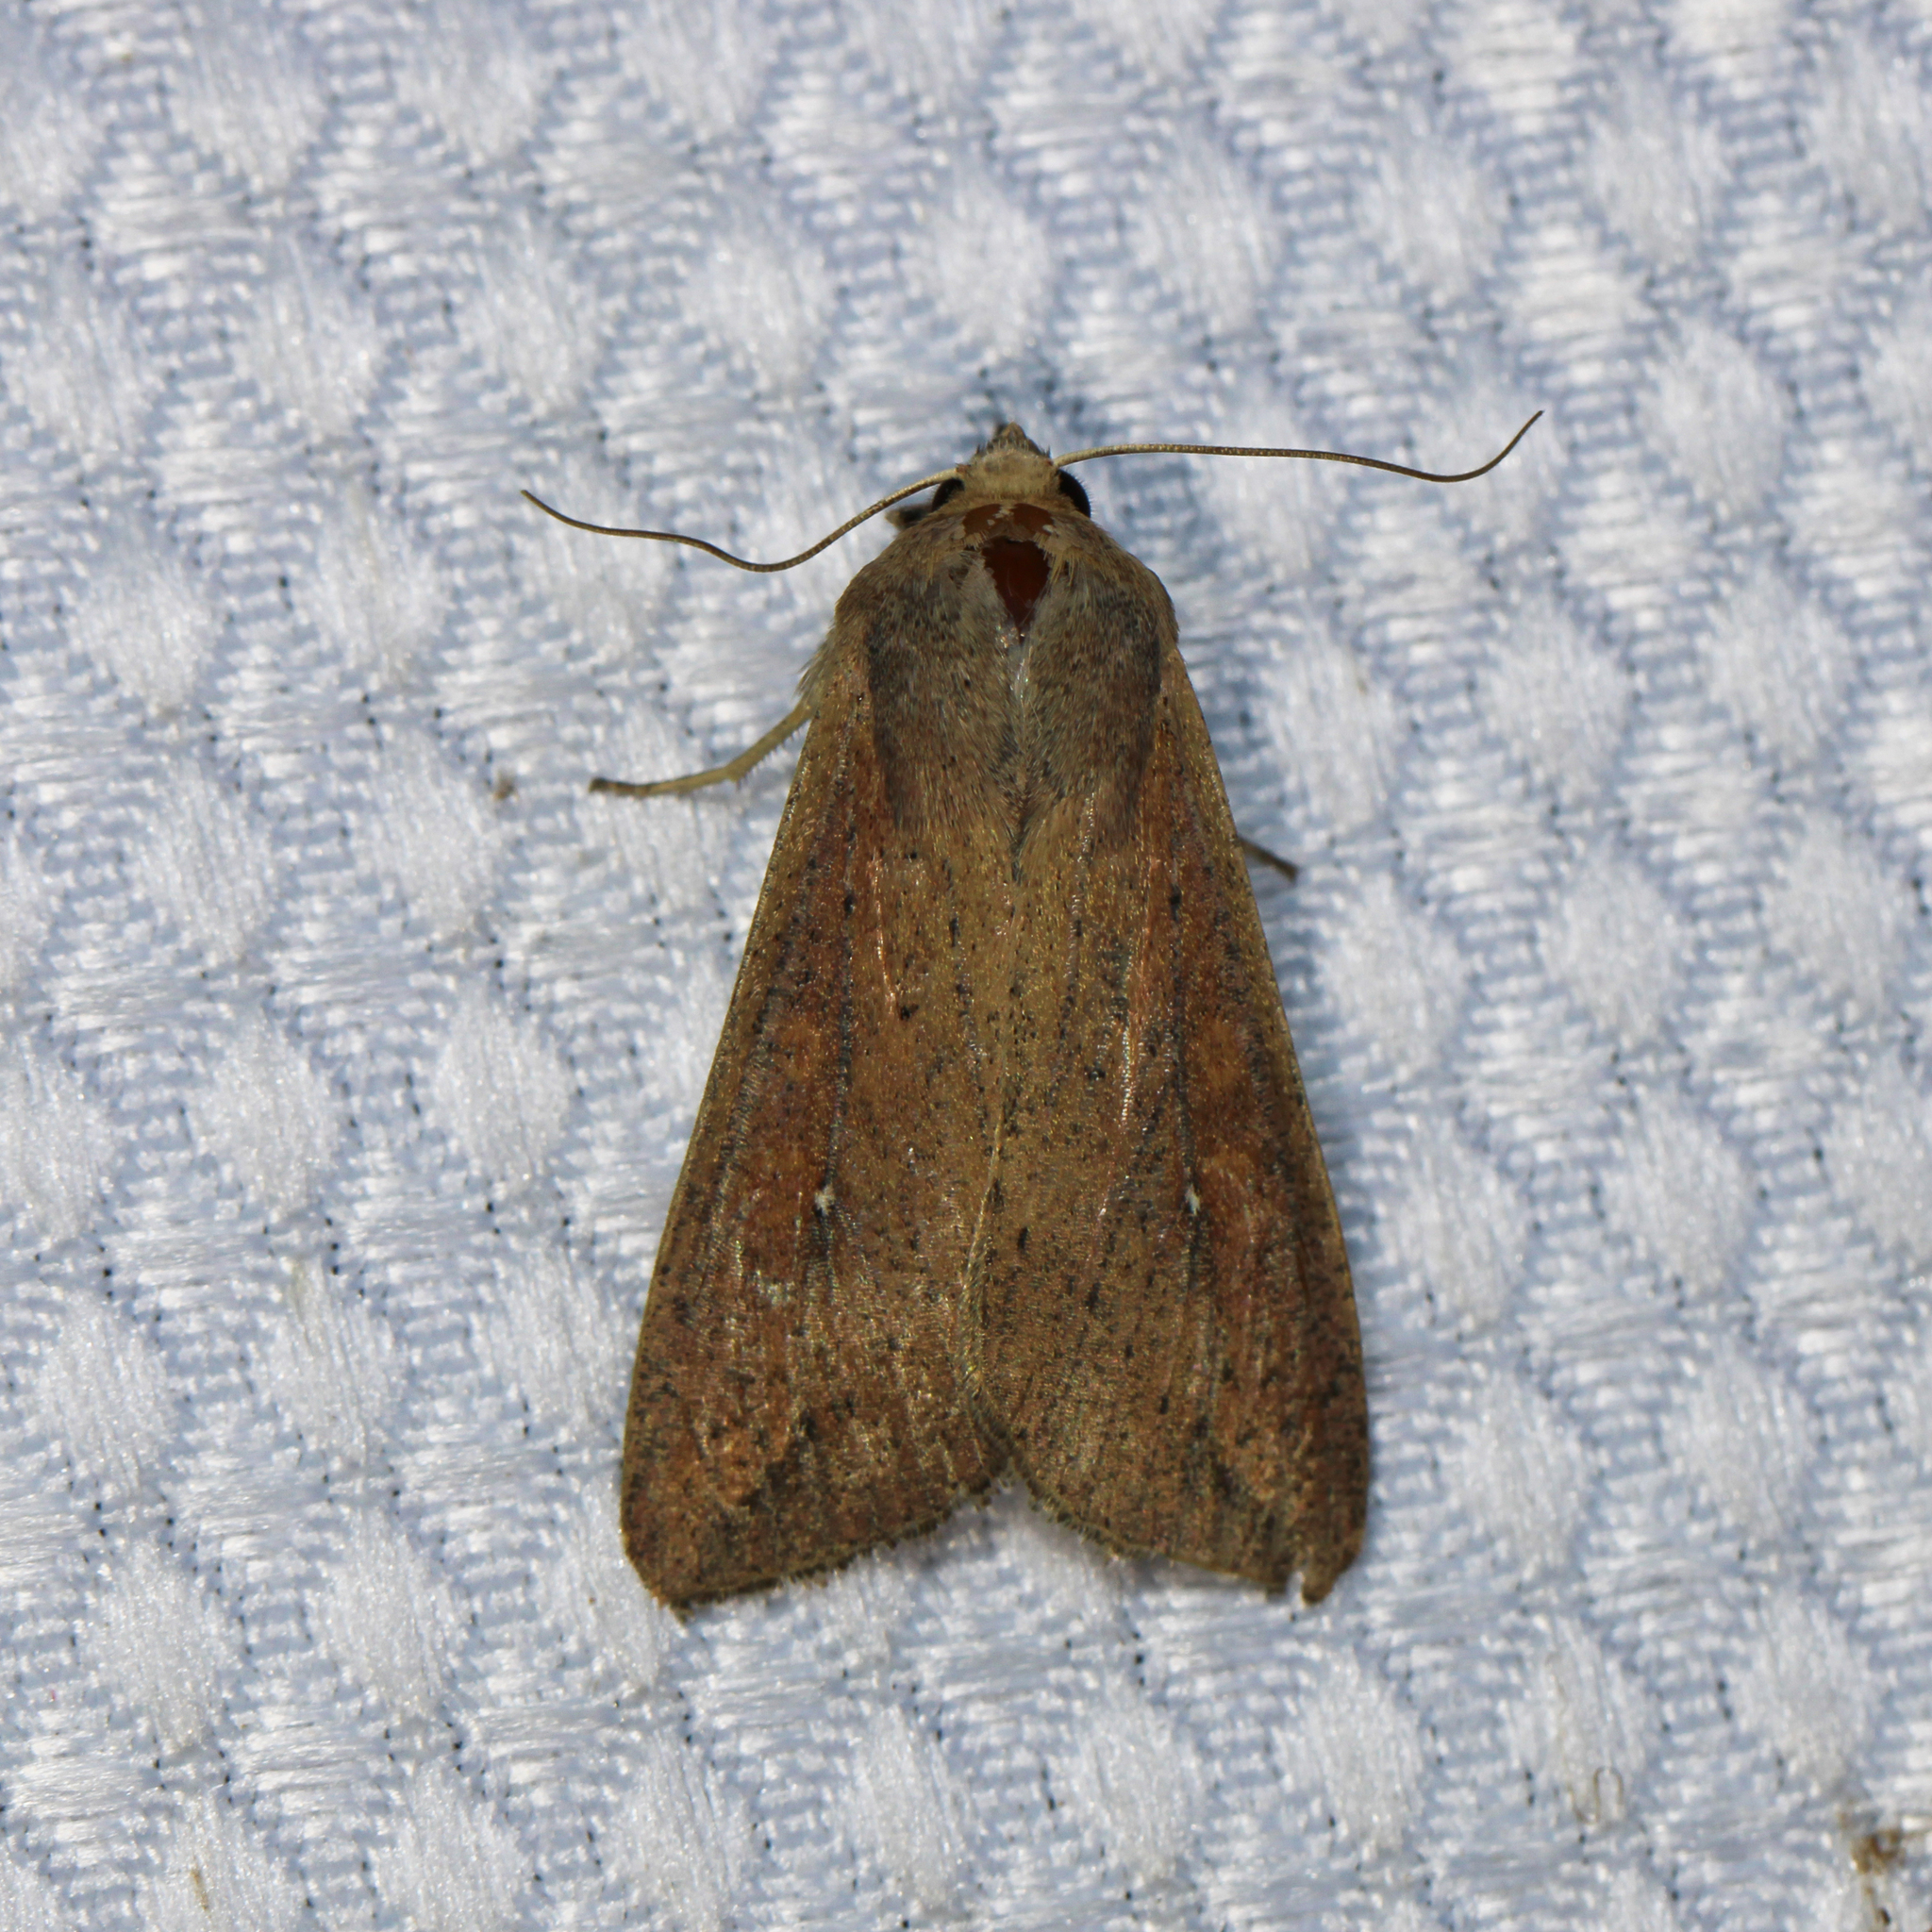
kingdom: Animalia
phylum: Arthropoda
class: Insecta
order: Lepidoptera
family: Noctuidae
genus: Mythimna
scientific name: Mythimna unipuncta
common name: White-speck
